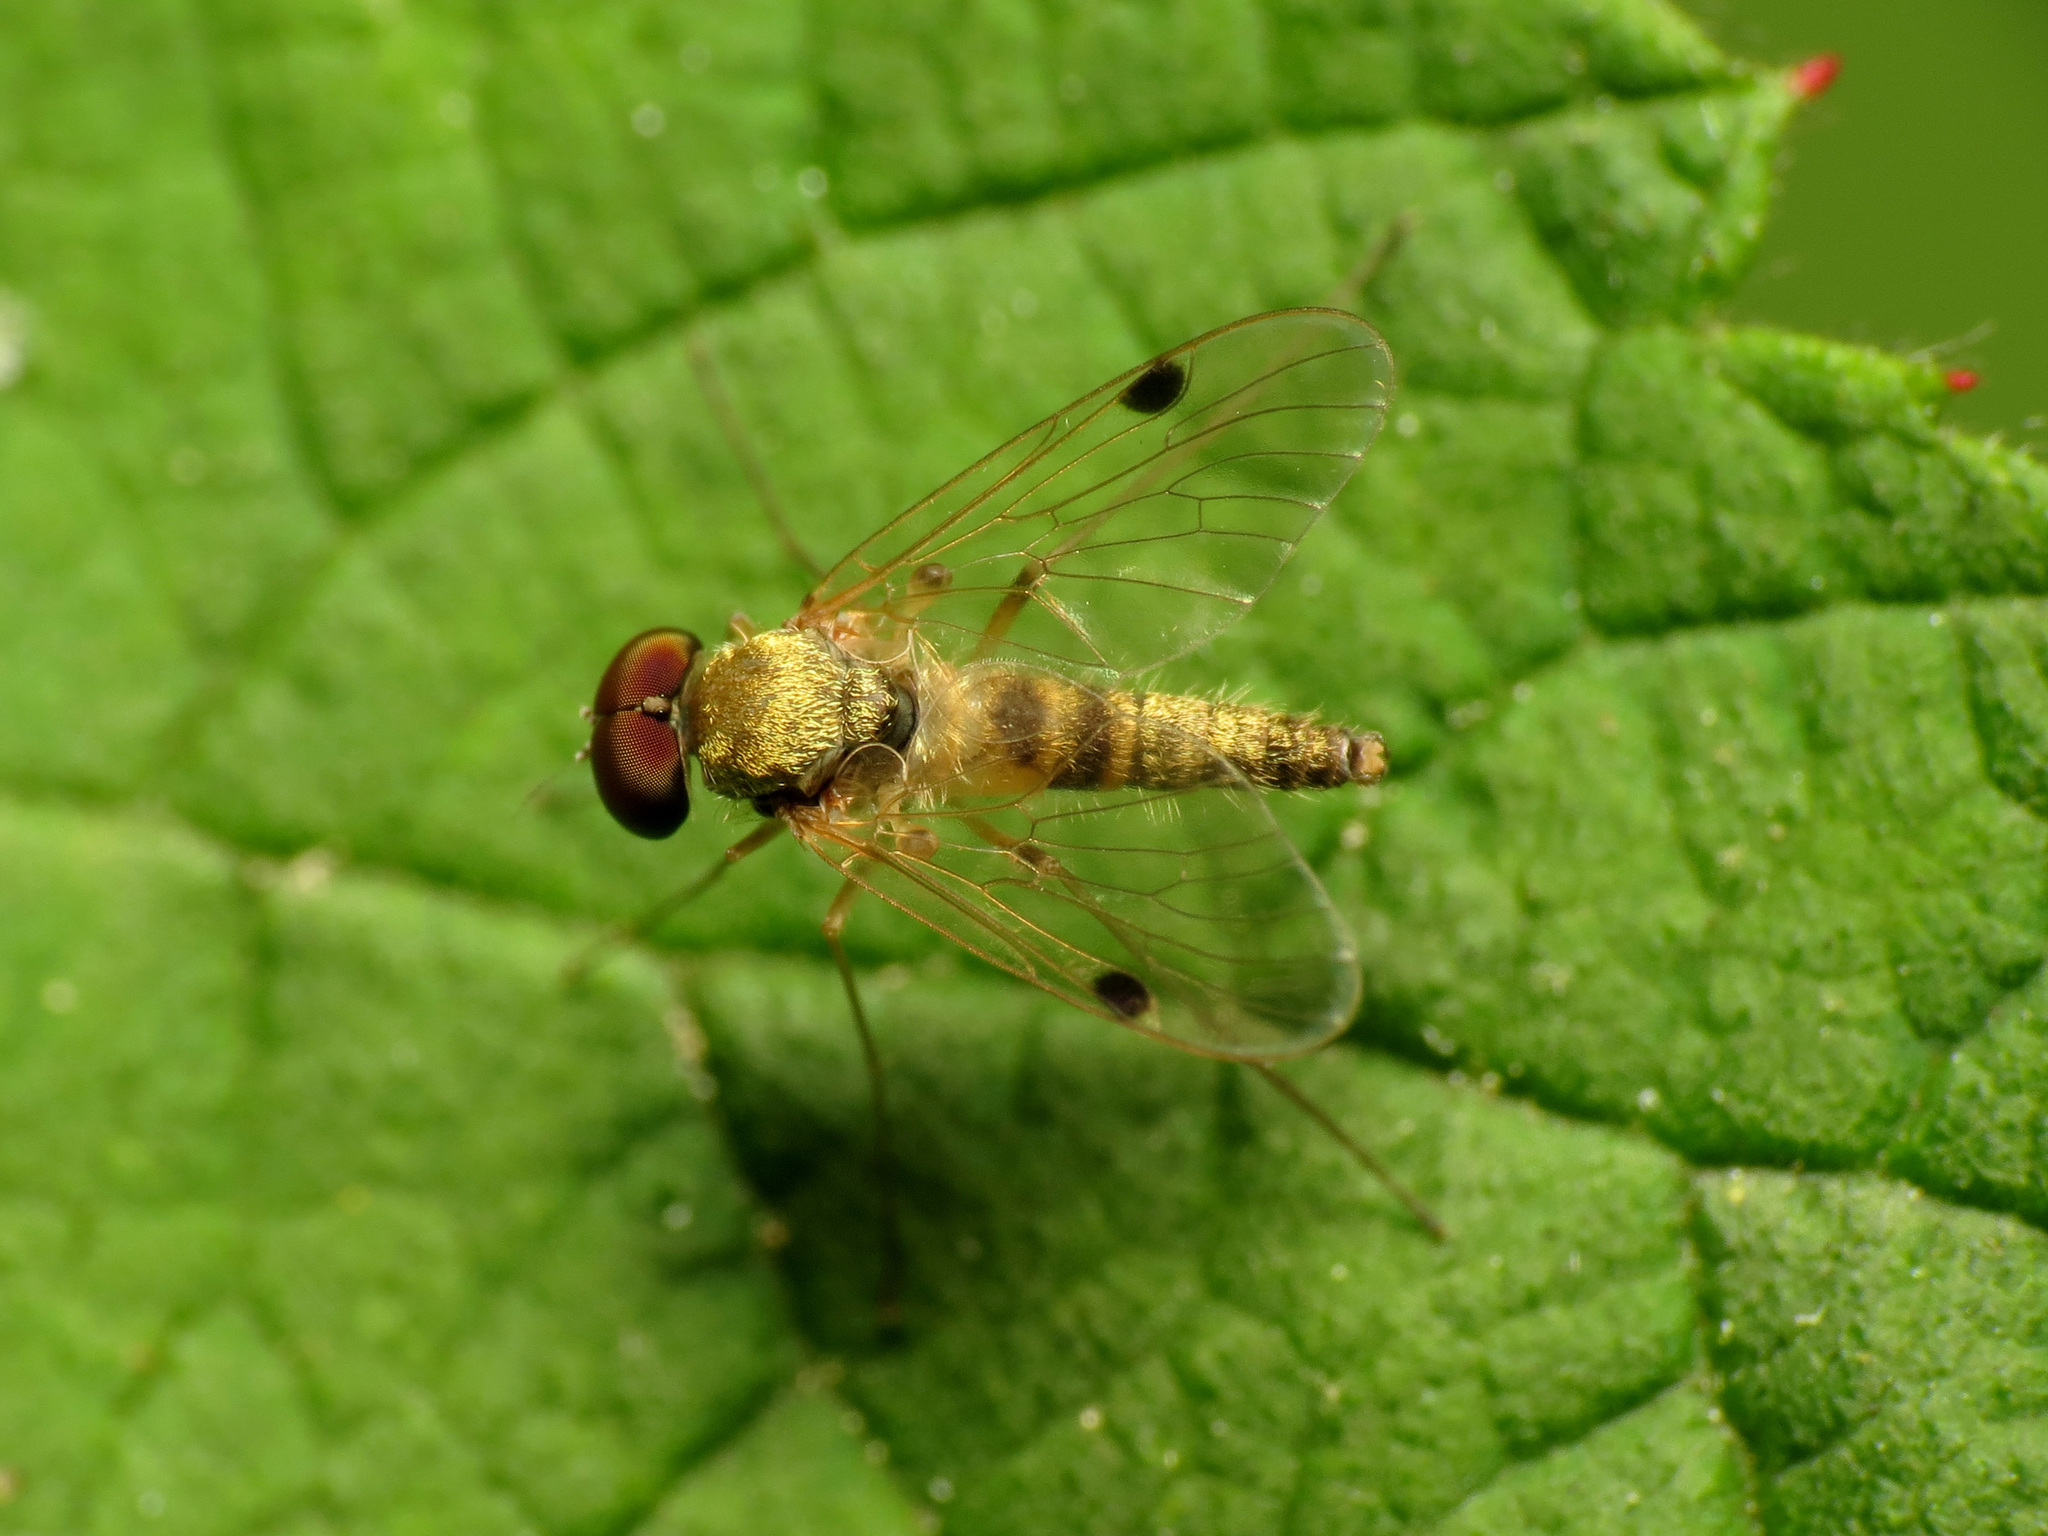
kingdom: Animalia
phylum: Arthropoda
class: Insecta
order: Diptera
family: Rhagionidae
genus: Chrysopilus
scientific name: Chrysopilus modestus
